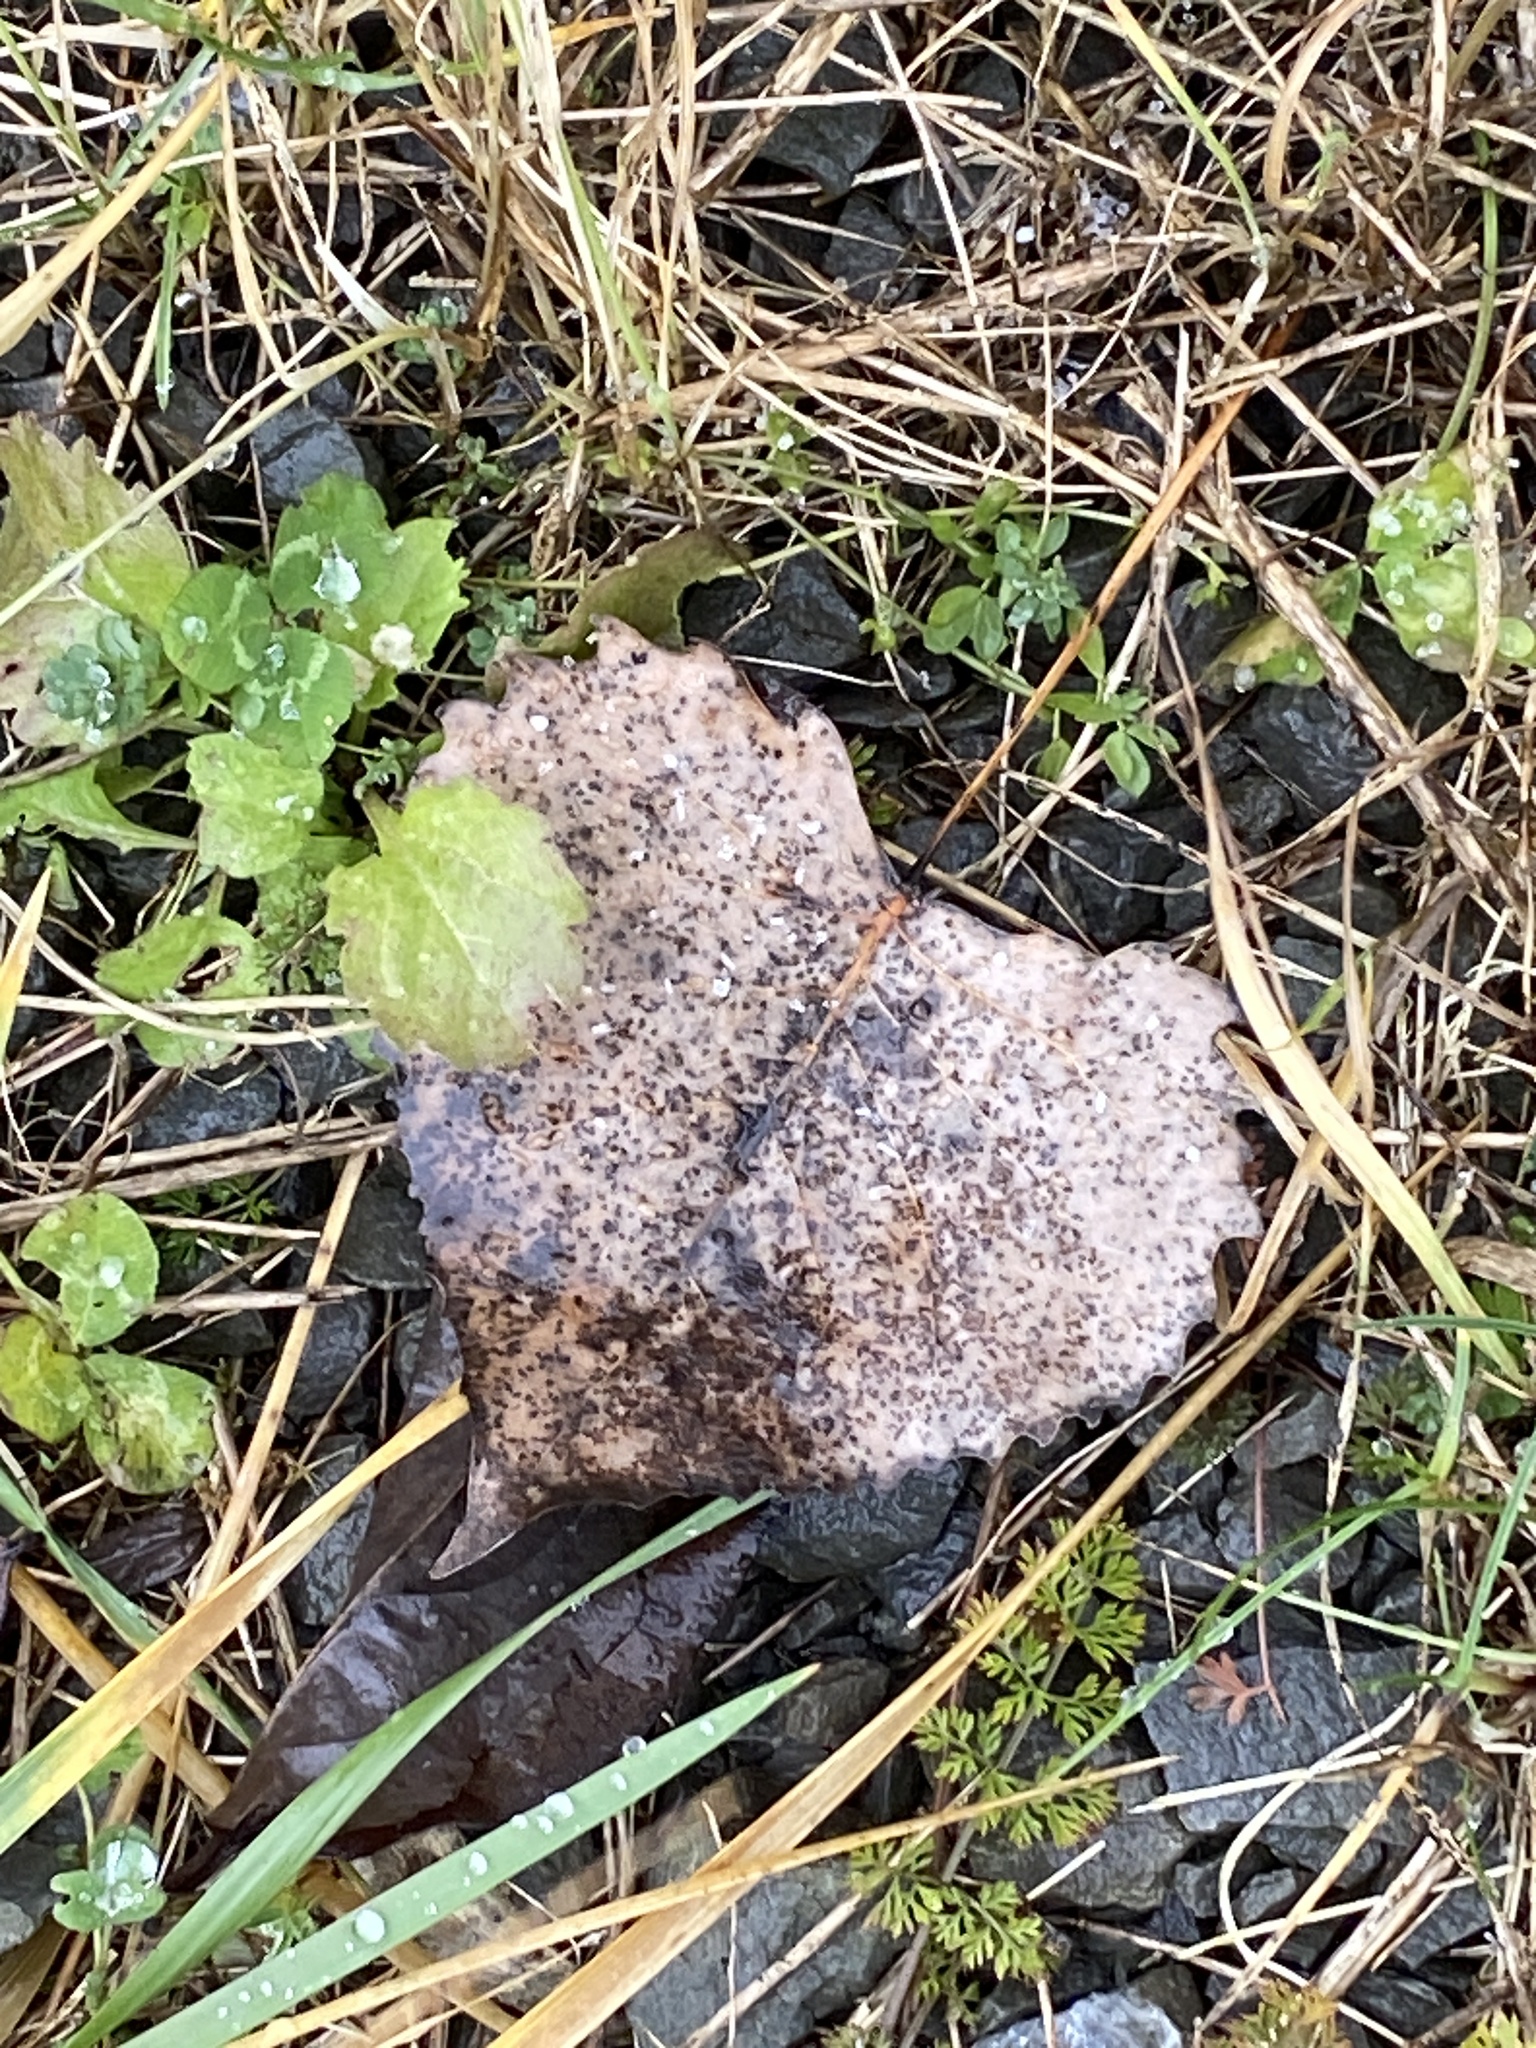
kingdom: Plantae
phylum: Tracheophyta
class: Magnoliopsida
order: Malpighiales
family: Salicaceae
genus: Populus
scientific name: Populus deltoides
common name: Eastern cottonwood
